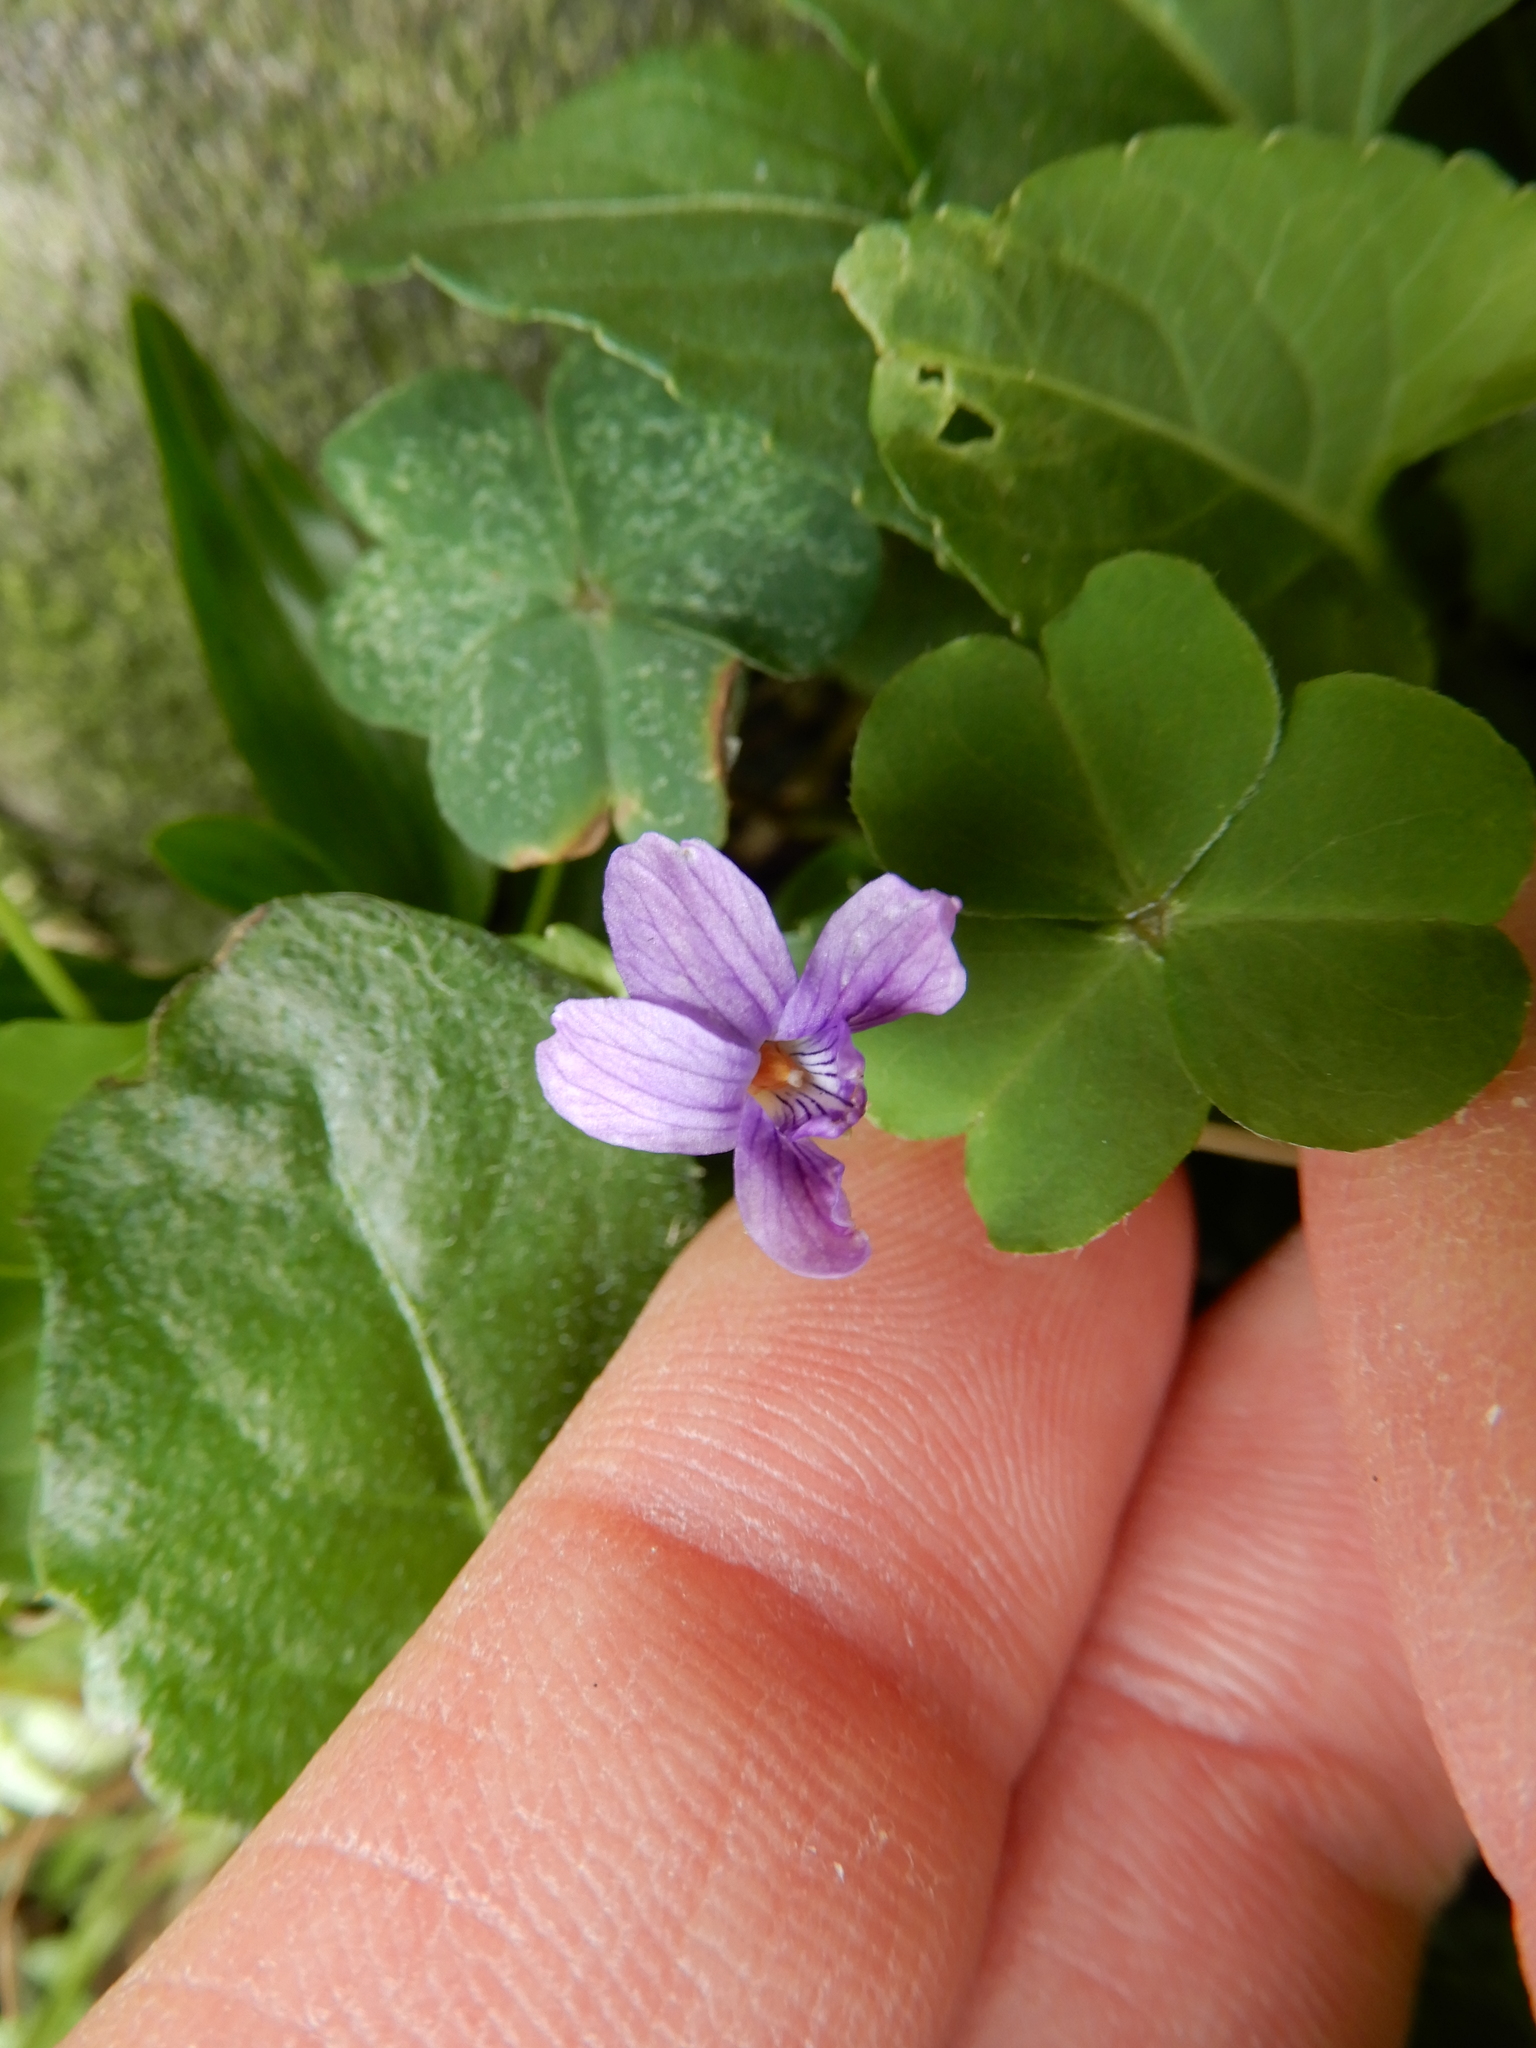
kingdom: Plantae
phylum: Tracheophyta
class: Magnoliopsida
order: Malpighiales
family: Violaceae
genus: Viola
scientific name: Viola inconspicua
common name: Long sepal violet
